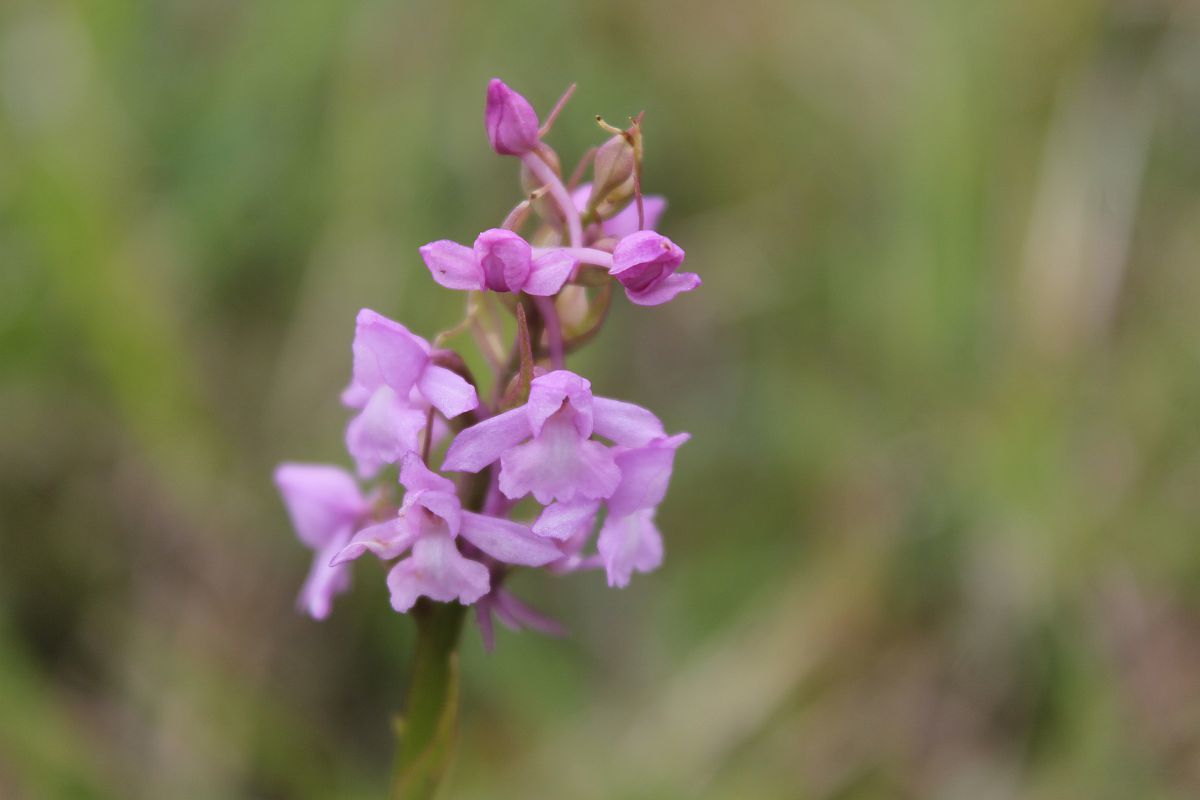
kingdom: Plantae
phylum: Tracheophyta
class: Liliopsida
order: Asparagales
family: Orchidaceae
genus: Gymnadenia
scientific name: Gymnadenia conopsea
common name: Fragrant orchid
